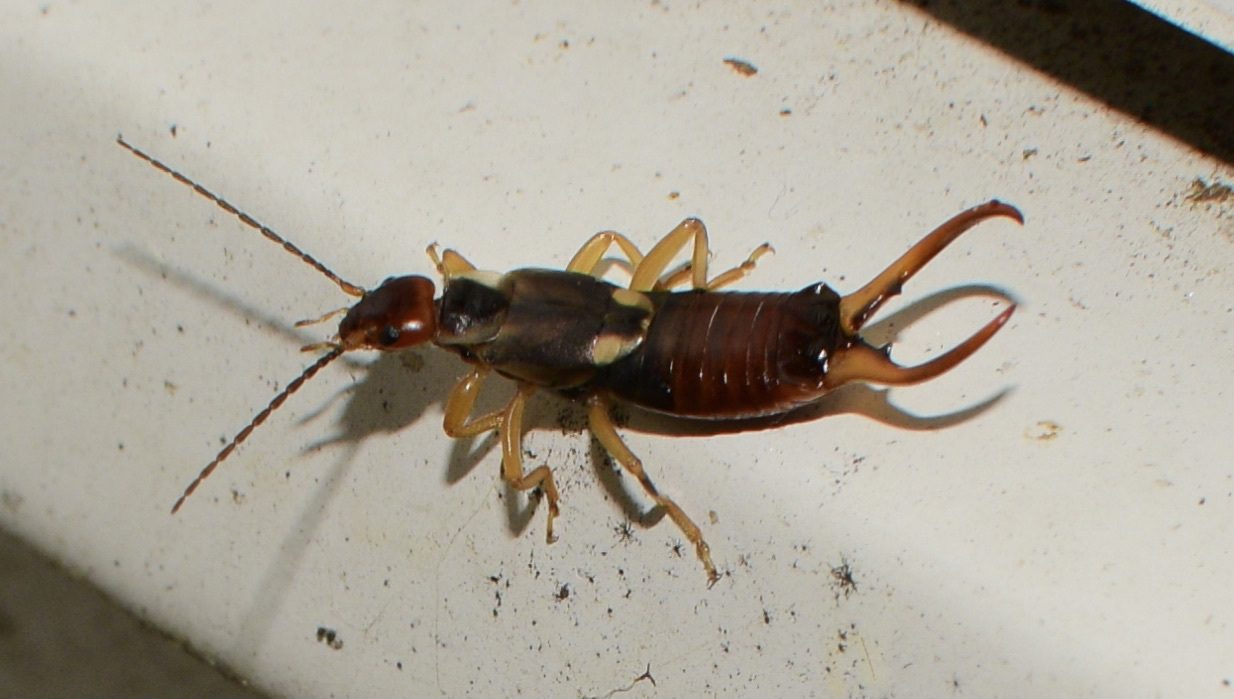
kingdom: Animalia
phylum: Arthropoda
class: Insecta
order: Dermaptera
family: Forficulidae
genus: Forficula
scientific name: Forficula
